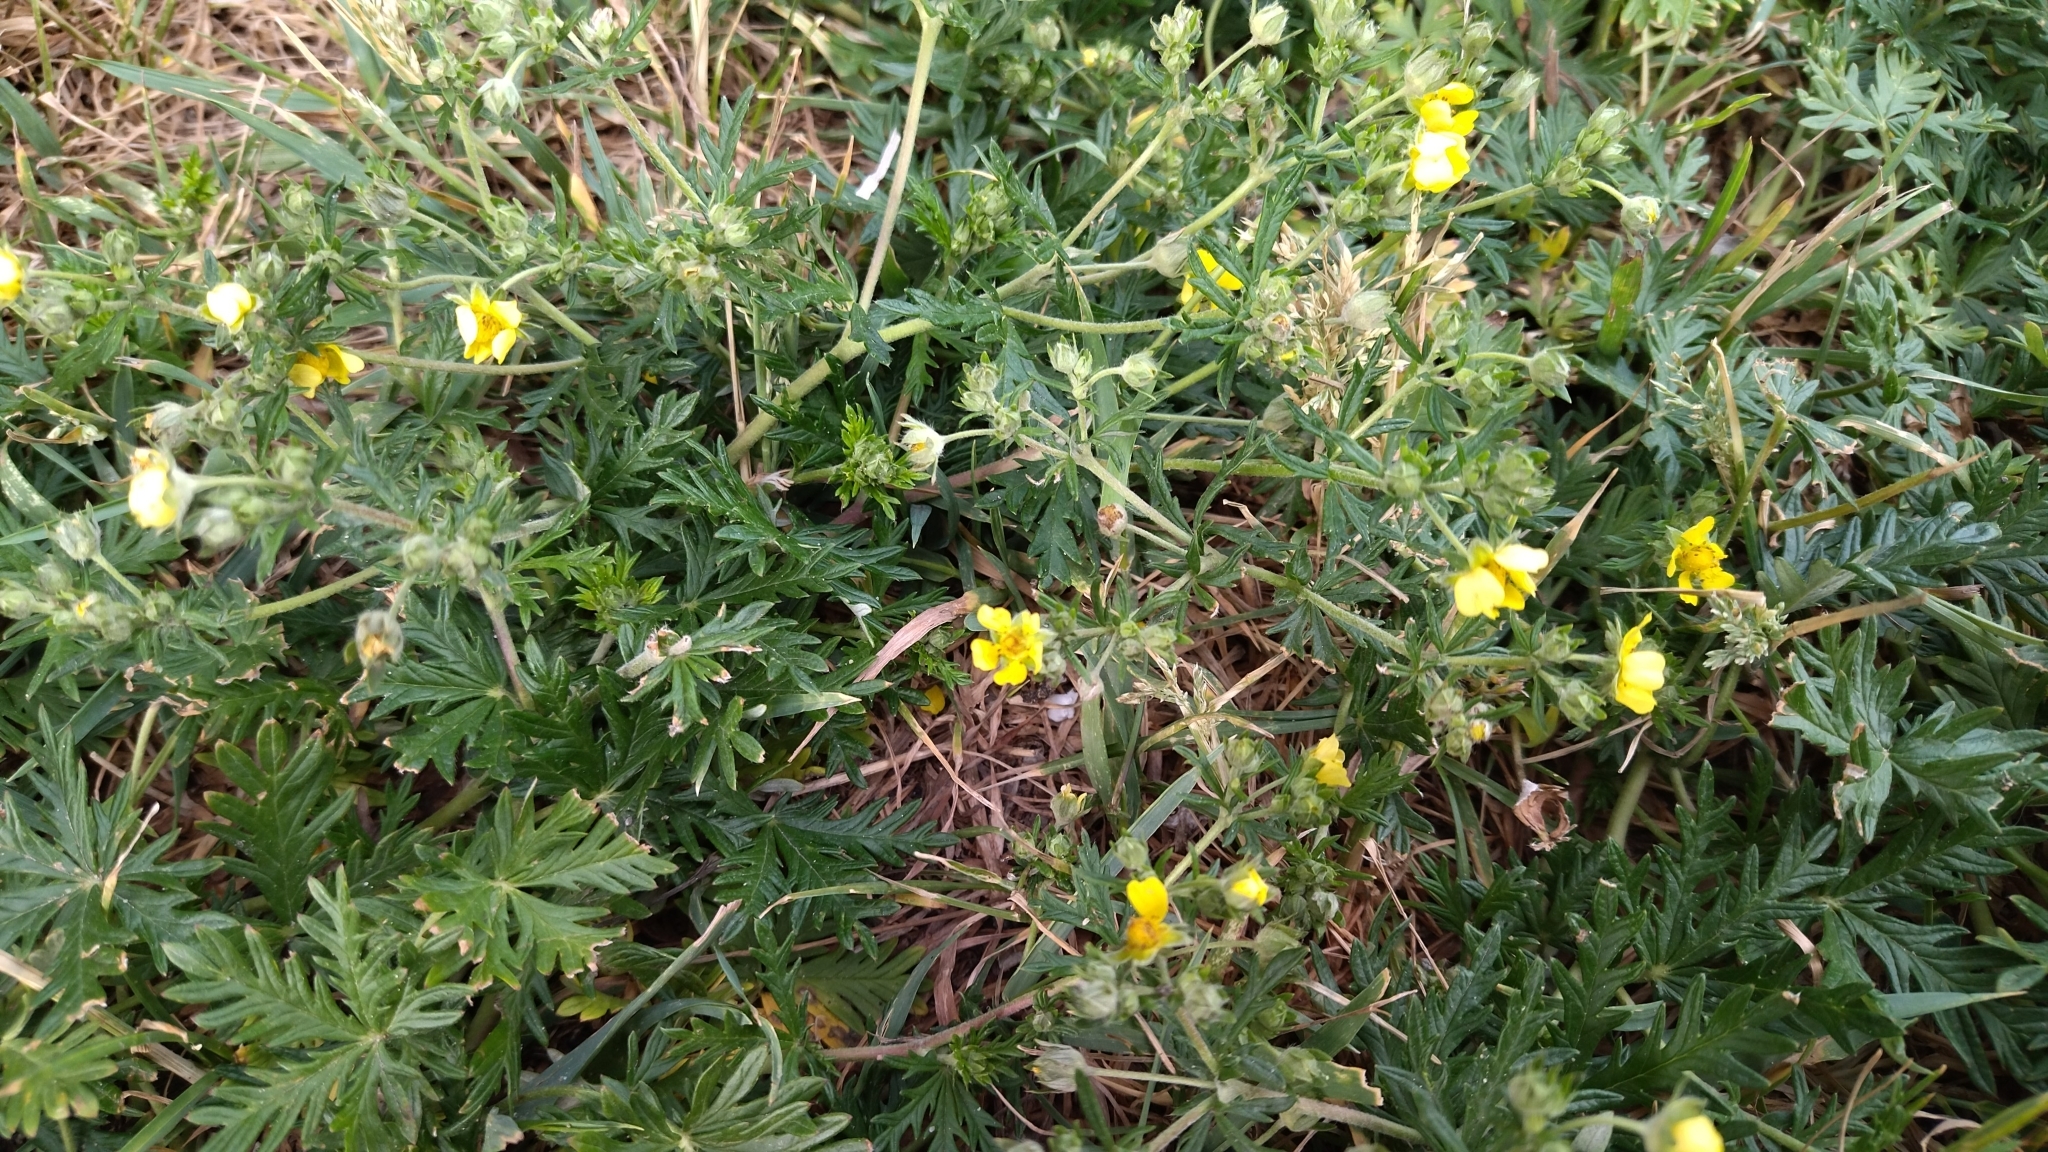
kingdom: Plantae
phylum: Tracheophyta
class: Magnoliopsida
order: Rosales
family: Rosaceae
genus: Potentilla
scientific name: Potentilla argentea
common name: Hoary cinquefoil
